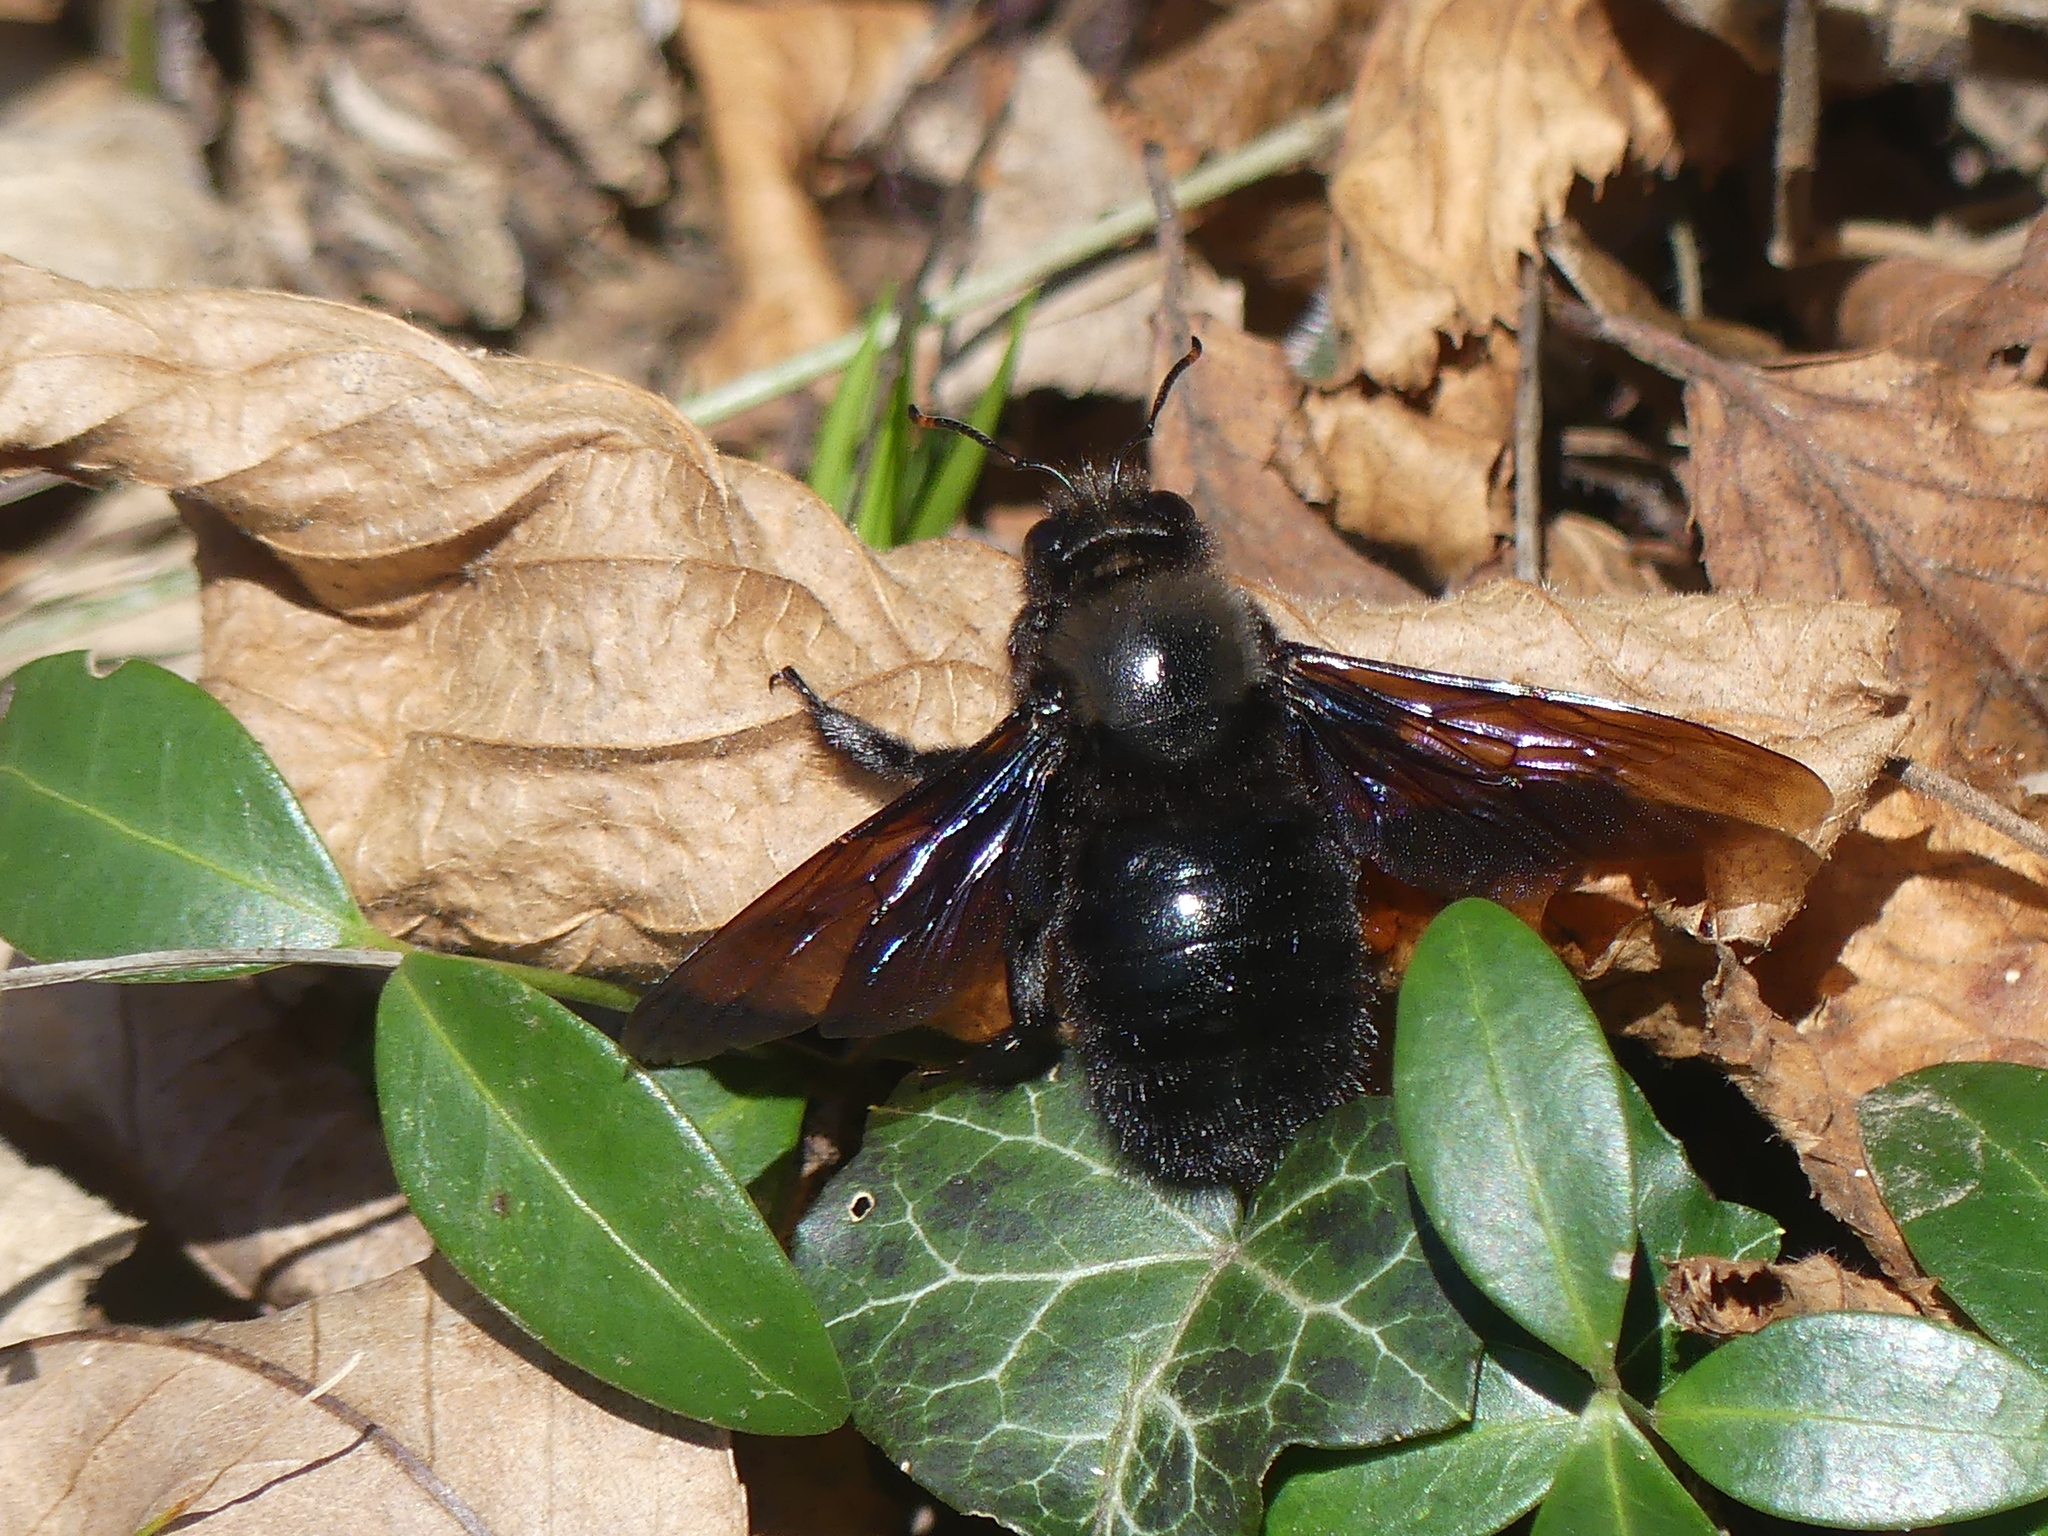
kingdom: Animalia
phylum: Arthropoda
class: Insecta
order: Hymenoptera
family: Apidae
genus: Xylocopa
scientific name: Xylocopa violacea
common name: Violet carpenter bee
